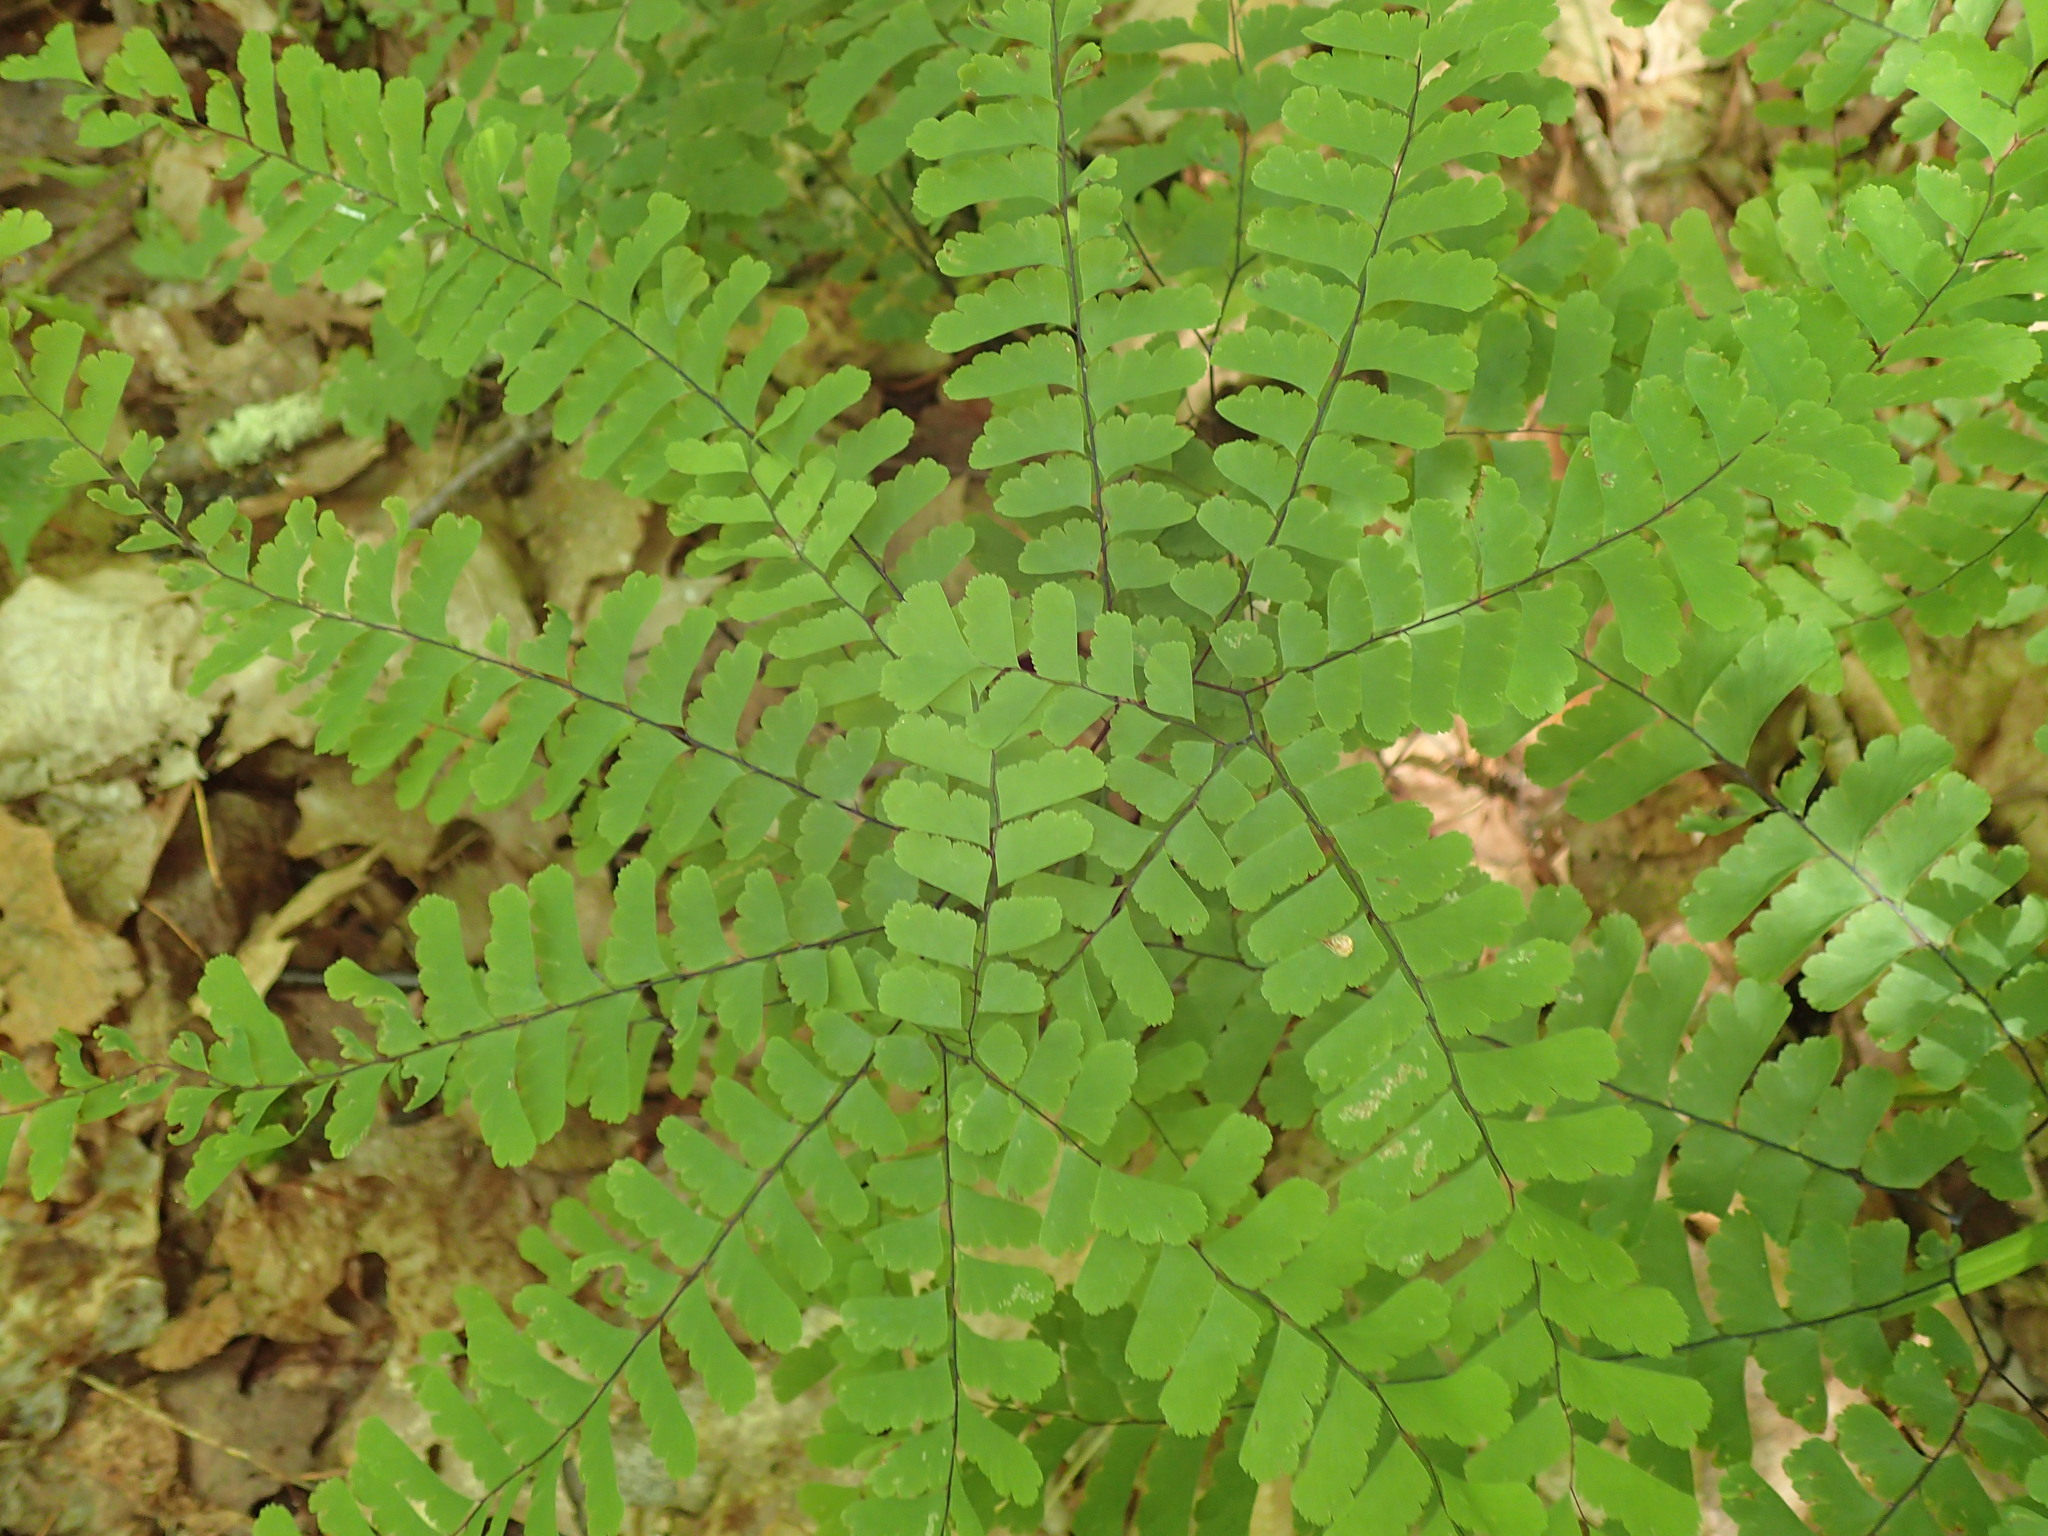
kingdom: Plantae
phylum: Tracheophyta
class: Polypodiopsida
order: Polypodiales
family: Pteridaceae
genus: Adiantum
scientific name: Adiantum pedatum
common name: Five-finger fern
